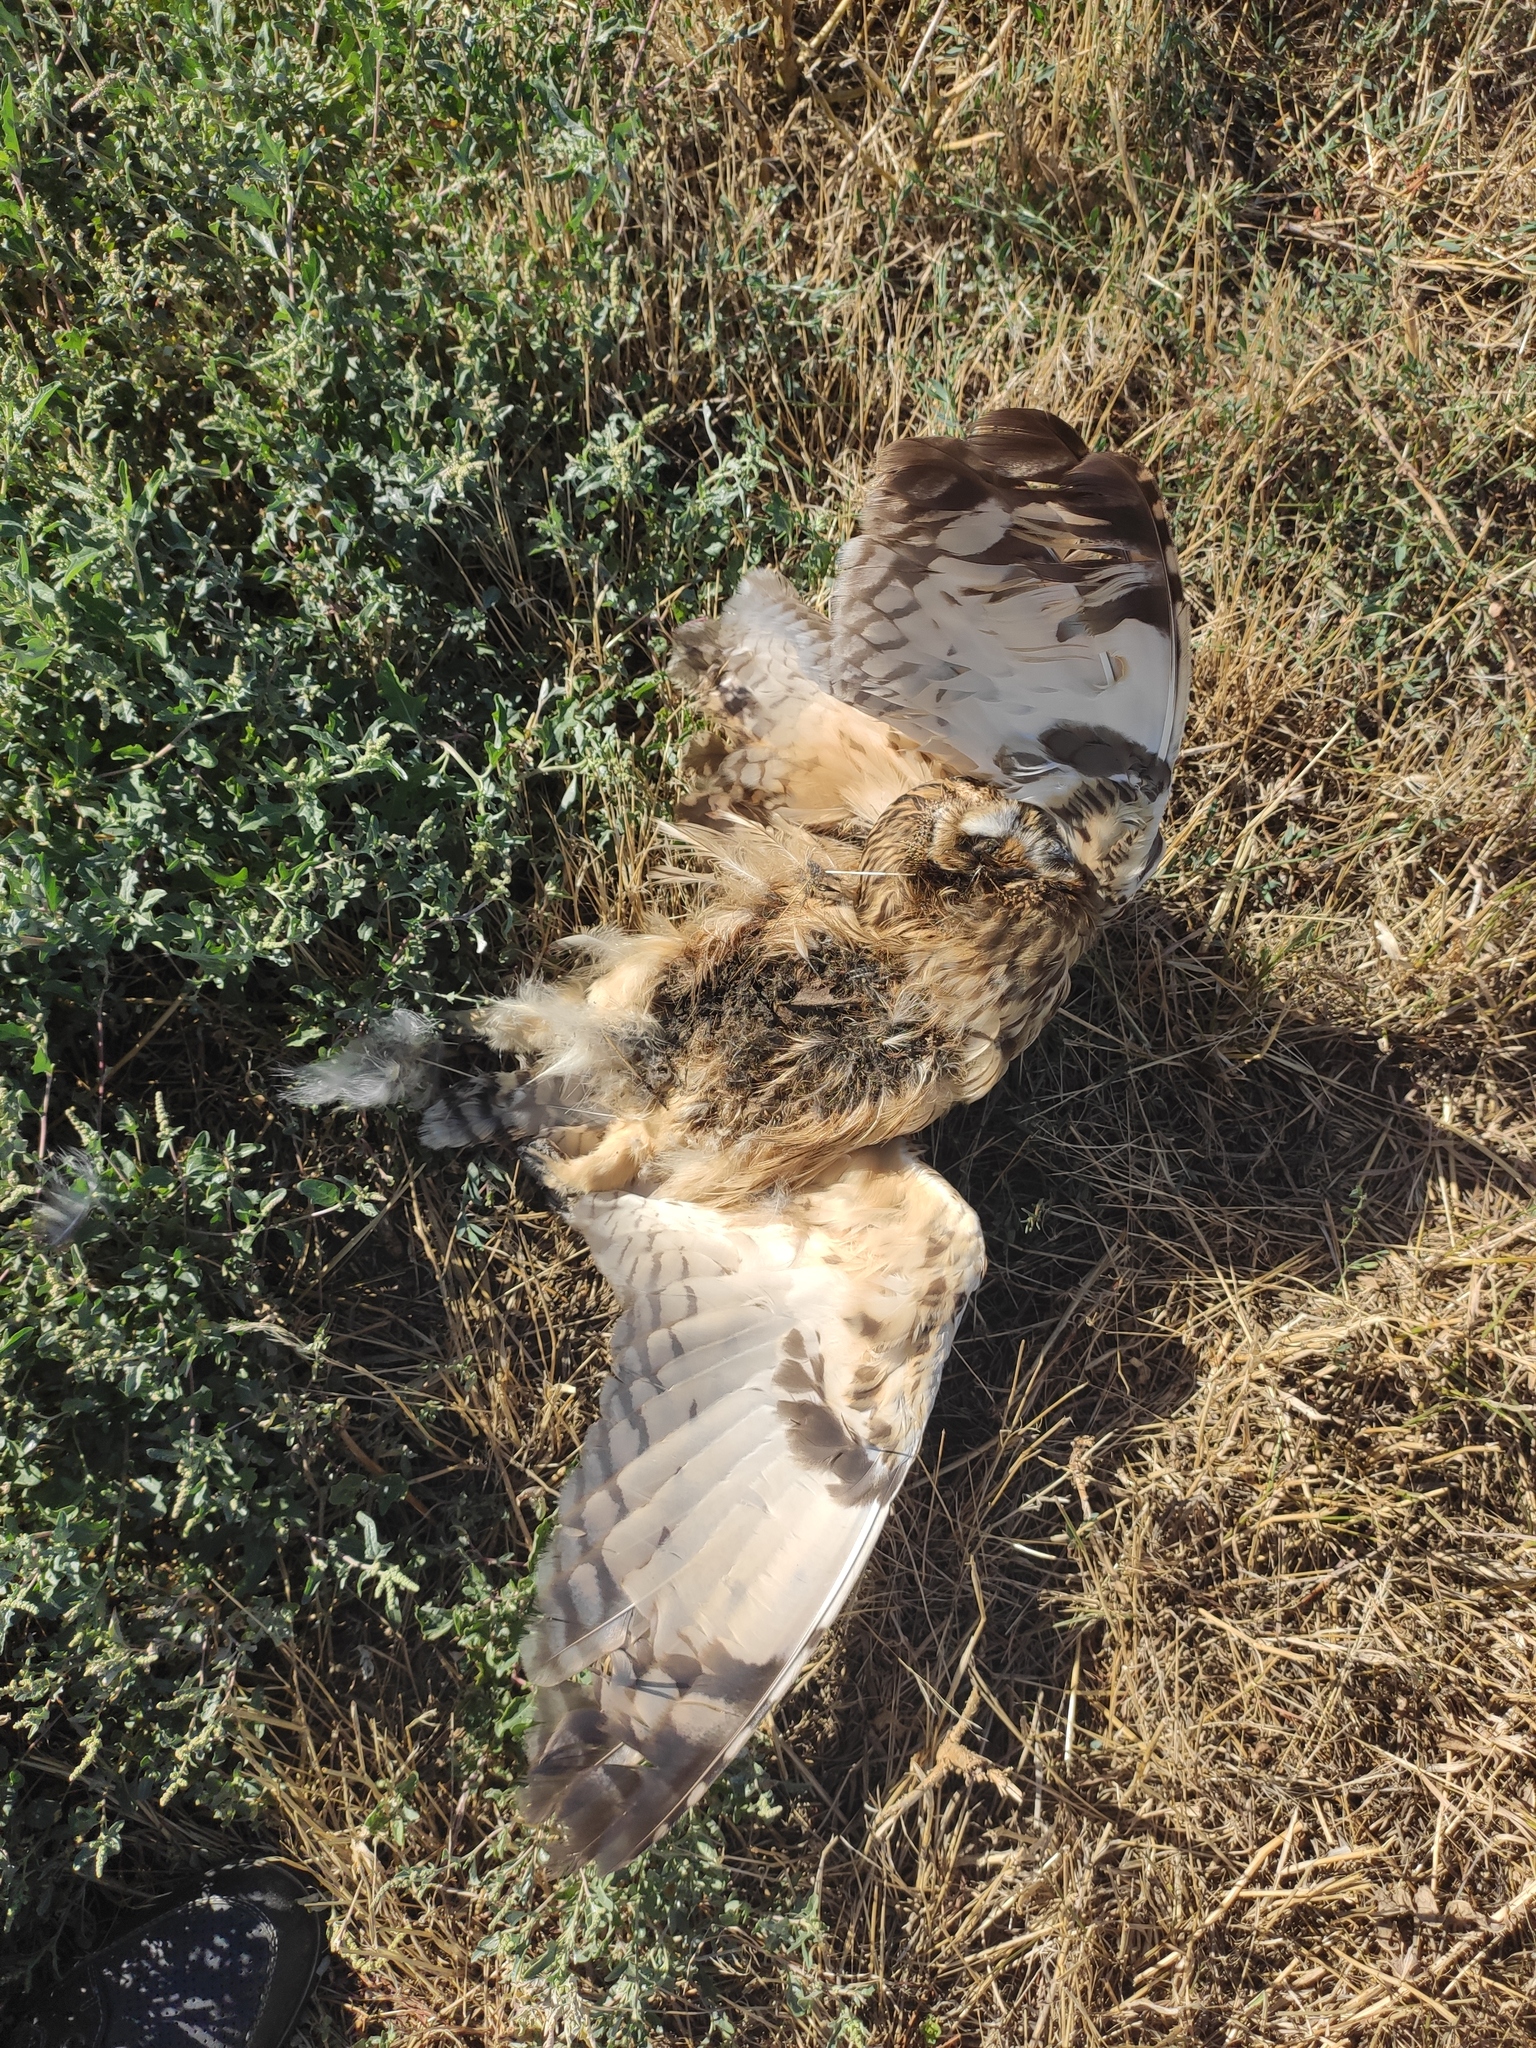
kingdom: Animalia
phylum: Chordata
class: Aves
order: Strigiformes
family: Strigidae
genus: Asio
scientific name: Asio flammeus
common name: Short-eared owl
